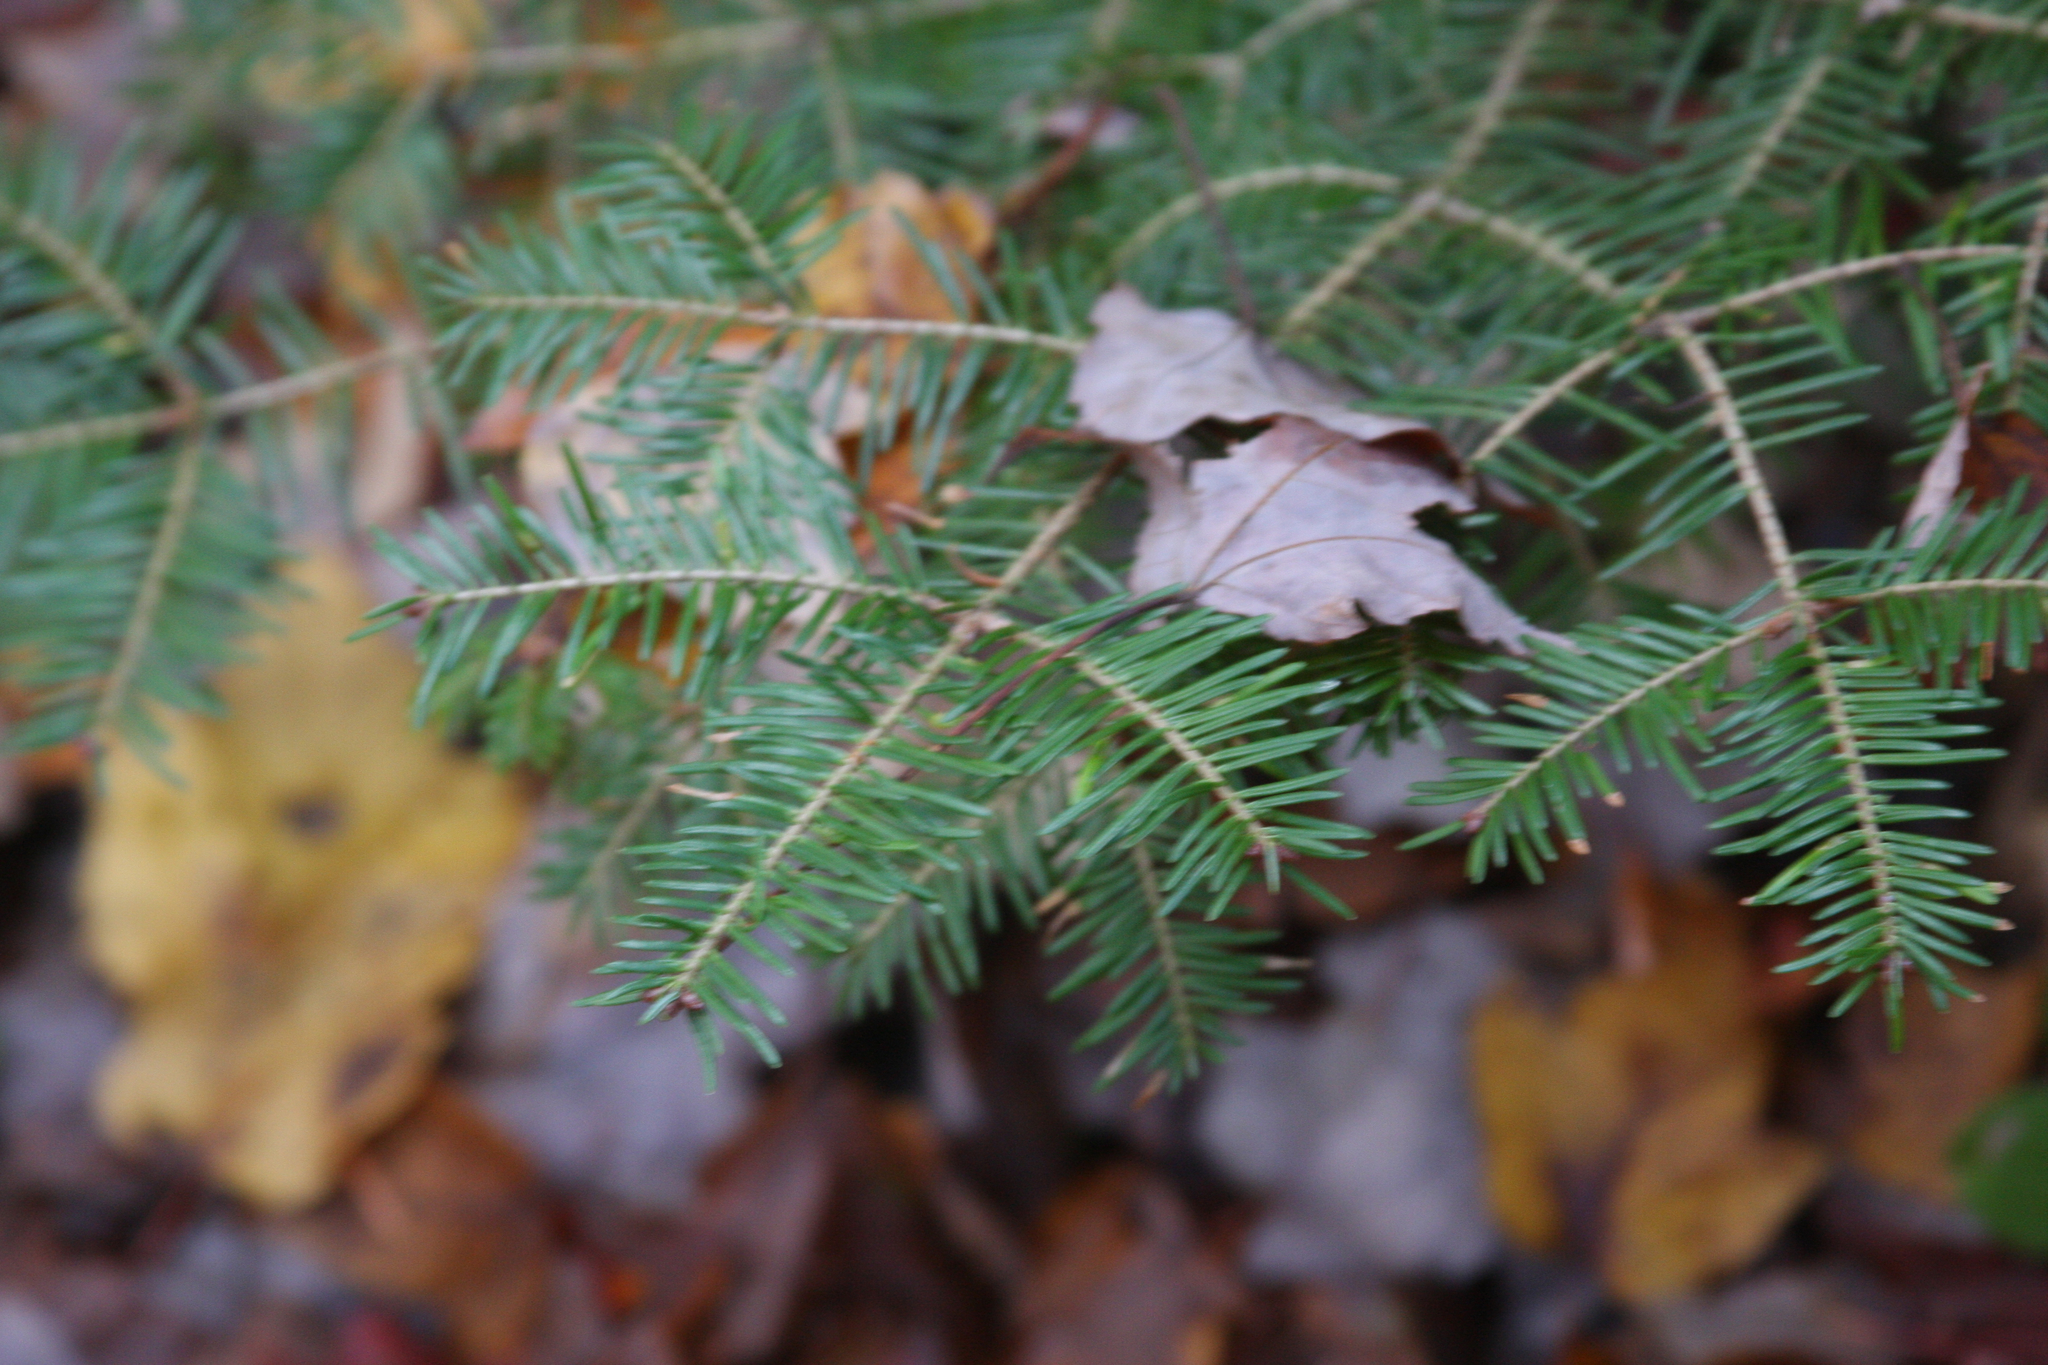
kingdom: Plantae
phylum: Tracheophyta
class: Pinopsida
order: Pinales
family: Pinaceae
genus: Abies
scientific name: Abies balsamea
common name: Balsam fir
